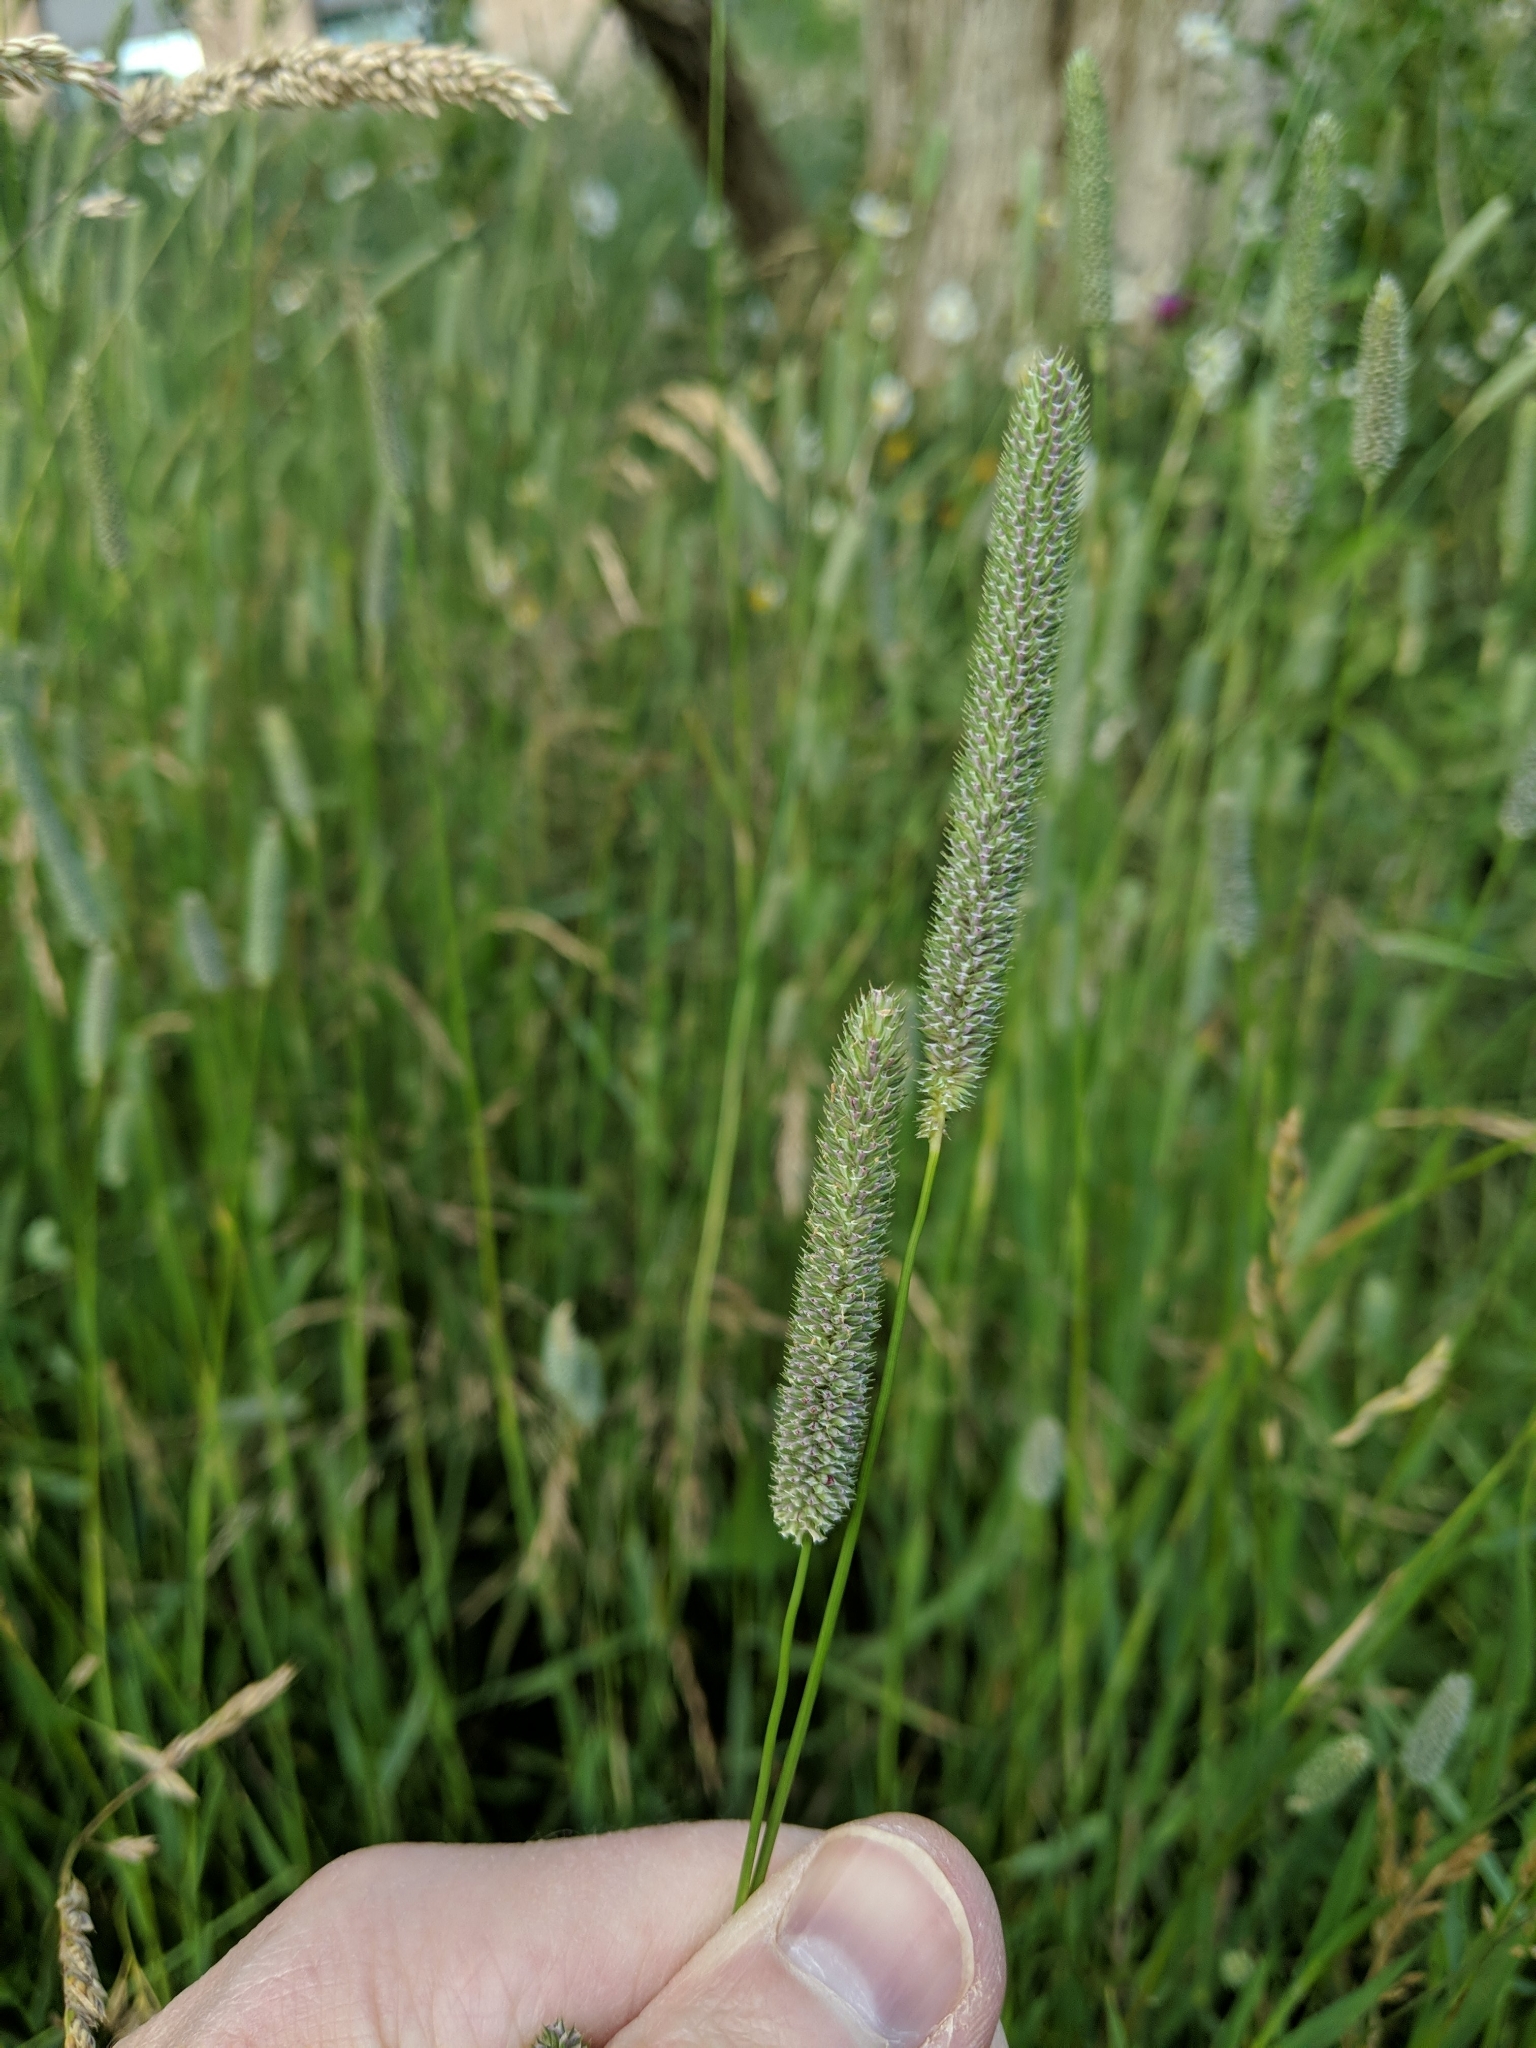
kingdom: Plantae
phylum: Tracheophyta
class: Liliopsida
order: Poales
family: Poaceae
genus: Phleum
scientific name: Phleum pratense
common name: Timothy grass
